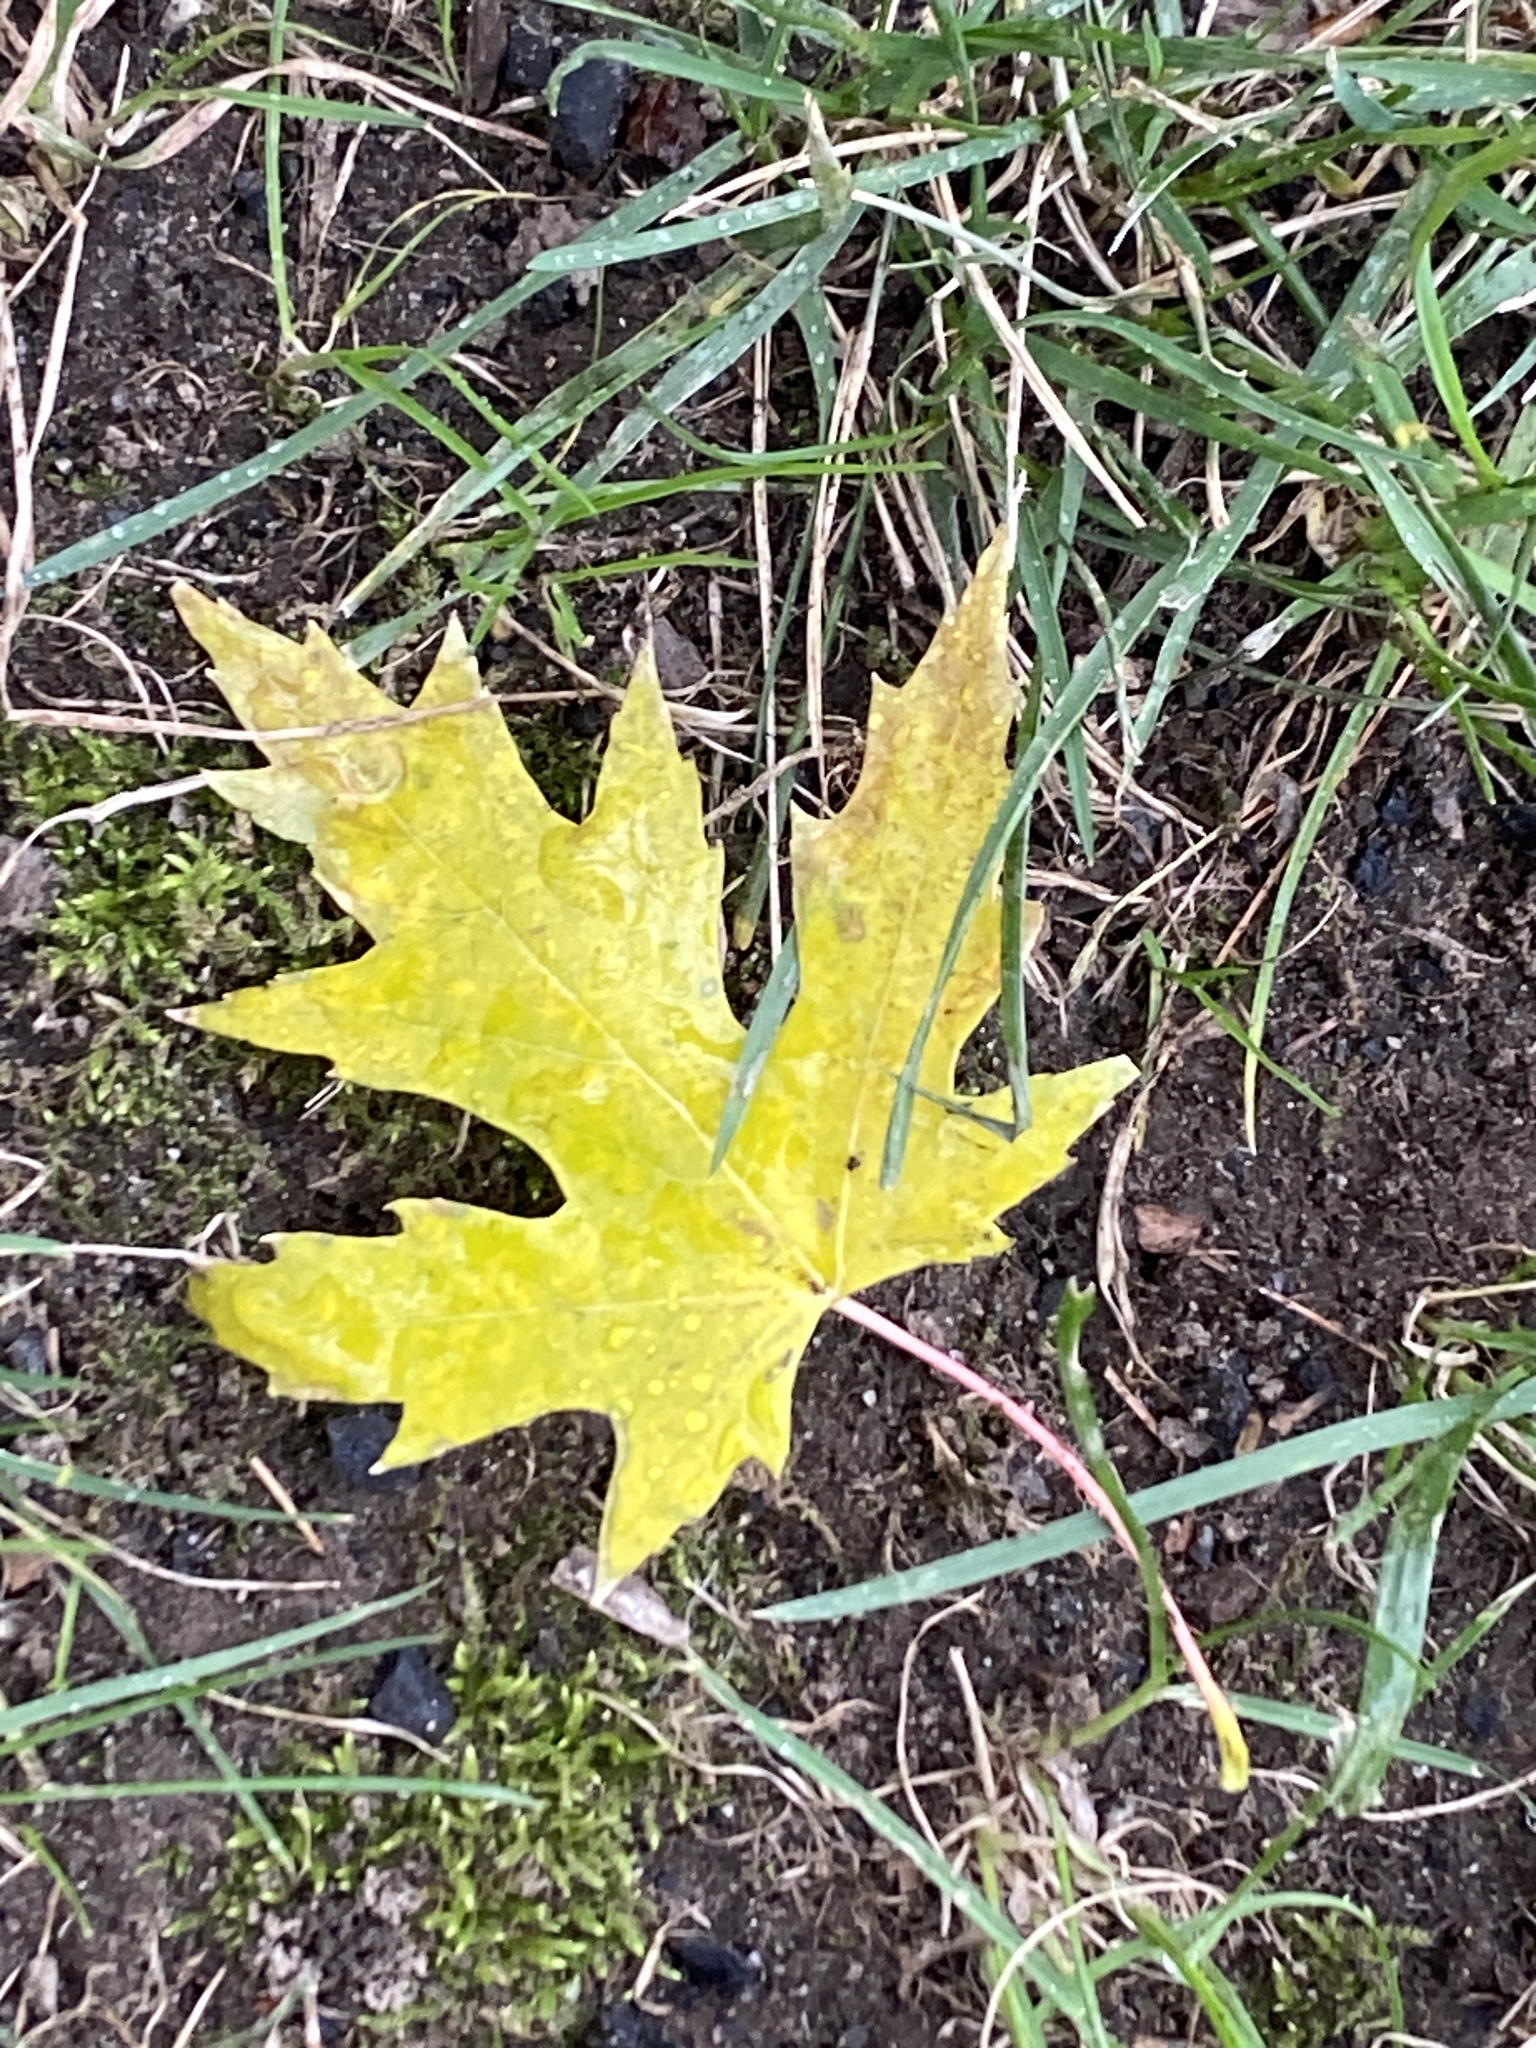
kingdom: Plantae
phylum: Tracheophyta
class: Magnoliopsida
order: Sapindales
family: Sapindaceae
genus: Acer
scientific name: Acer saccharinum
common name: Silver maple
